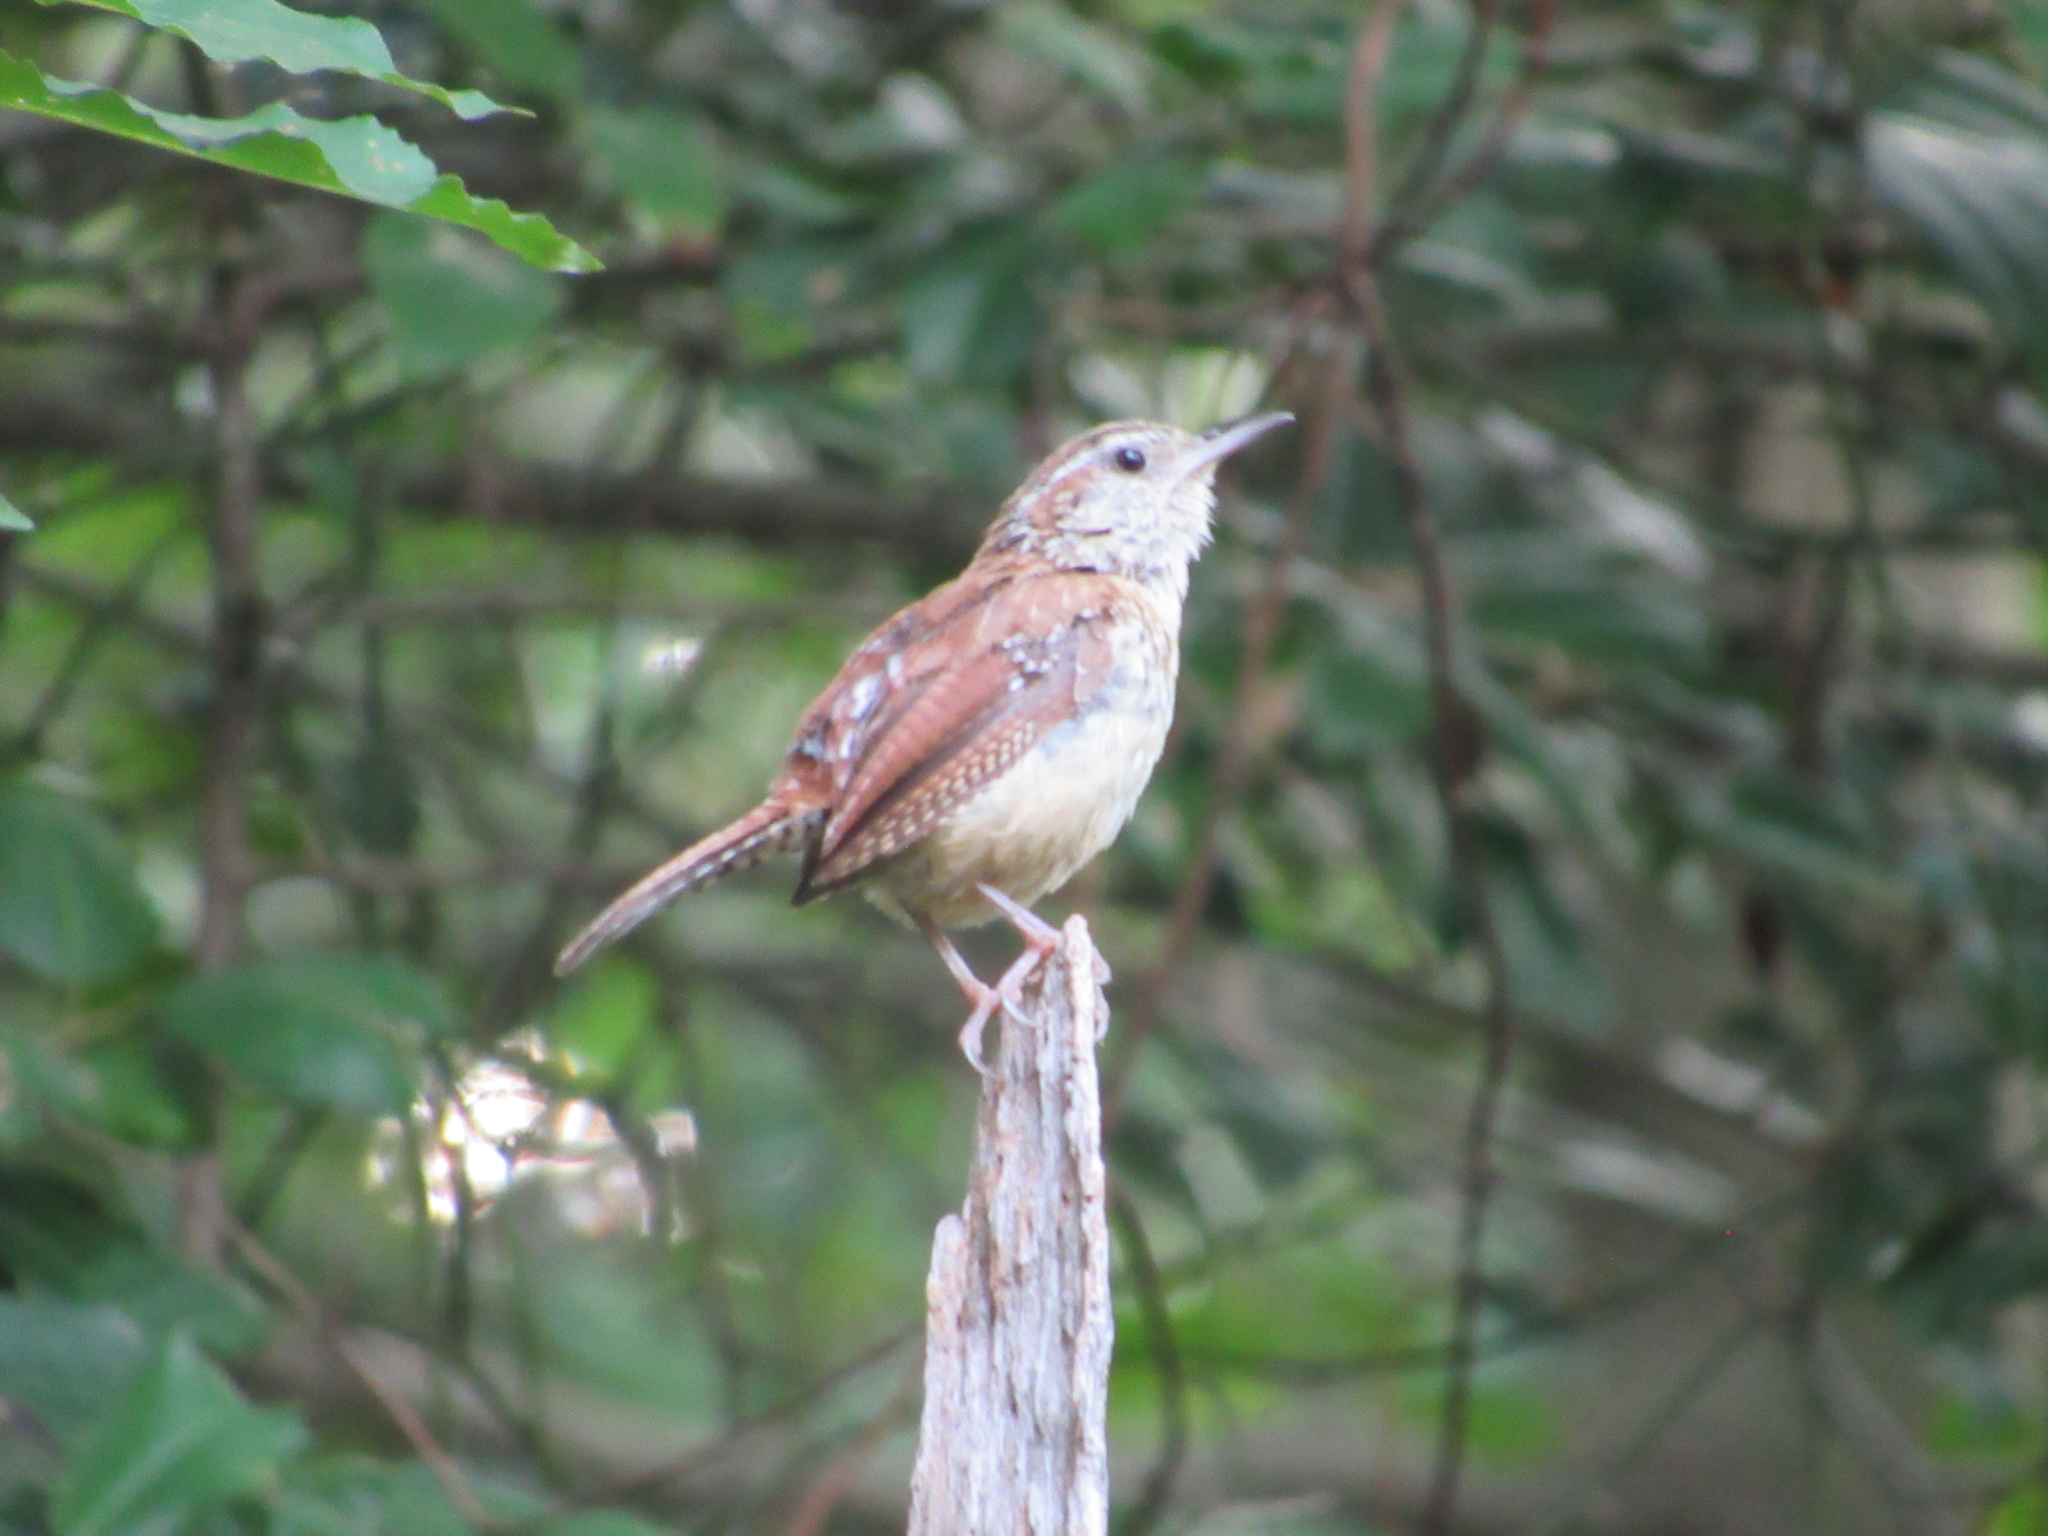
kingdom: Animalia
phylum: Chordata
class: Aves
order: Passeriformes
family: Troglodytidae
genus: Thryothorus
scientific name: Thryothorus ludovicianus
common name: Carolina wren
